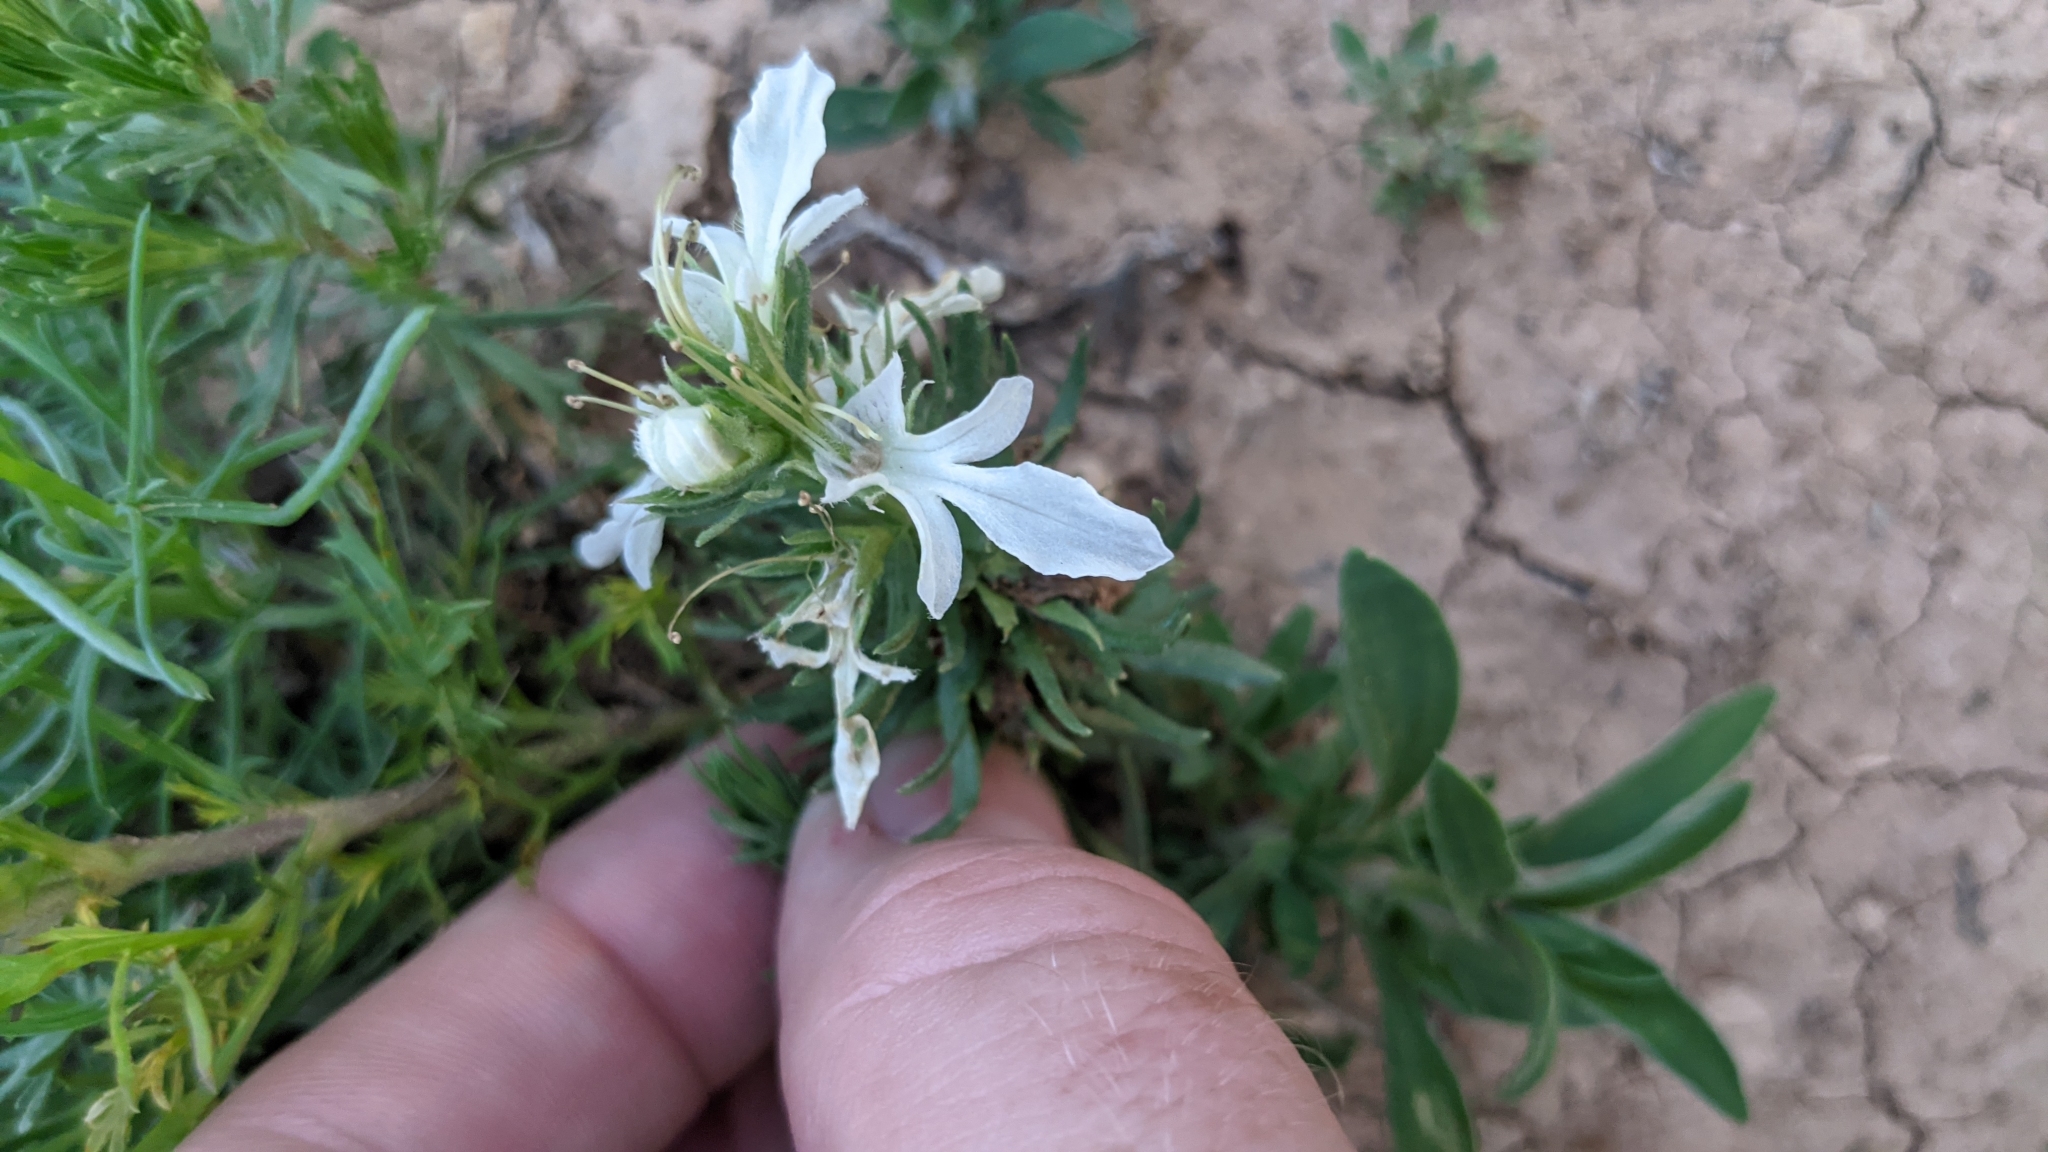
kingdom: Plantae
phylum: Tracheophyta
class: Magnoliopsida
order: Lamiales
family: Lamiaceae
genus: Teucrium
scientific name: Teucrium laciniatum
